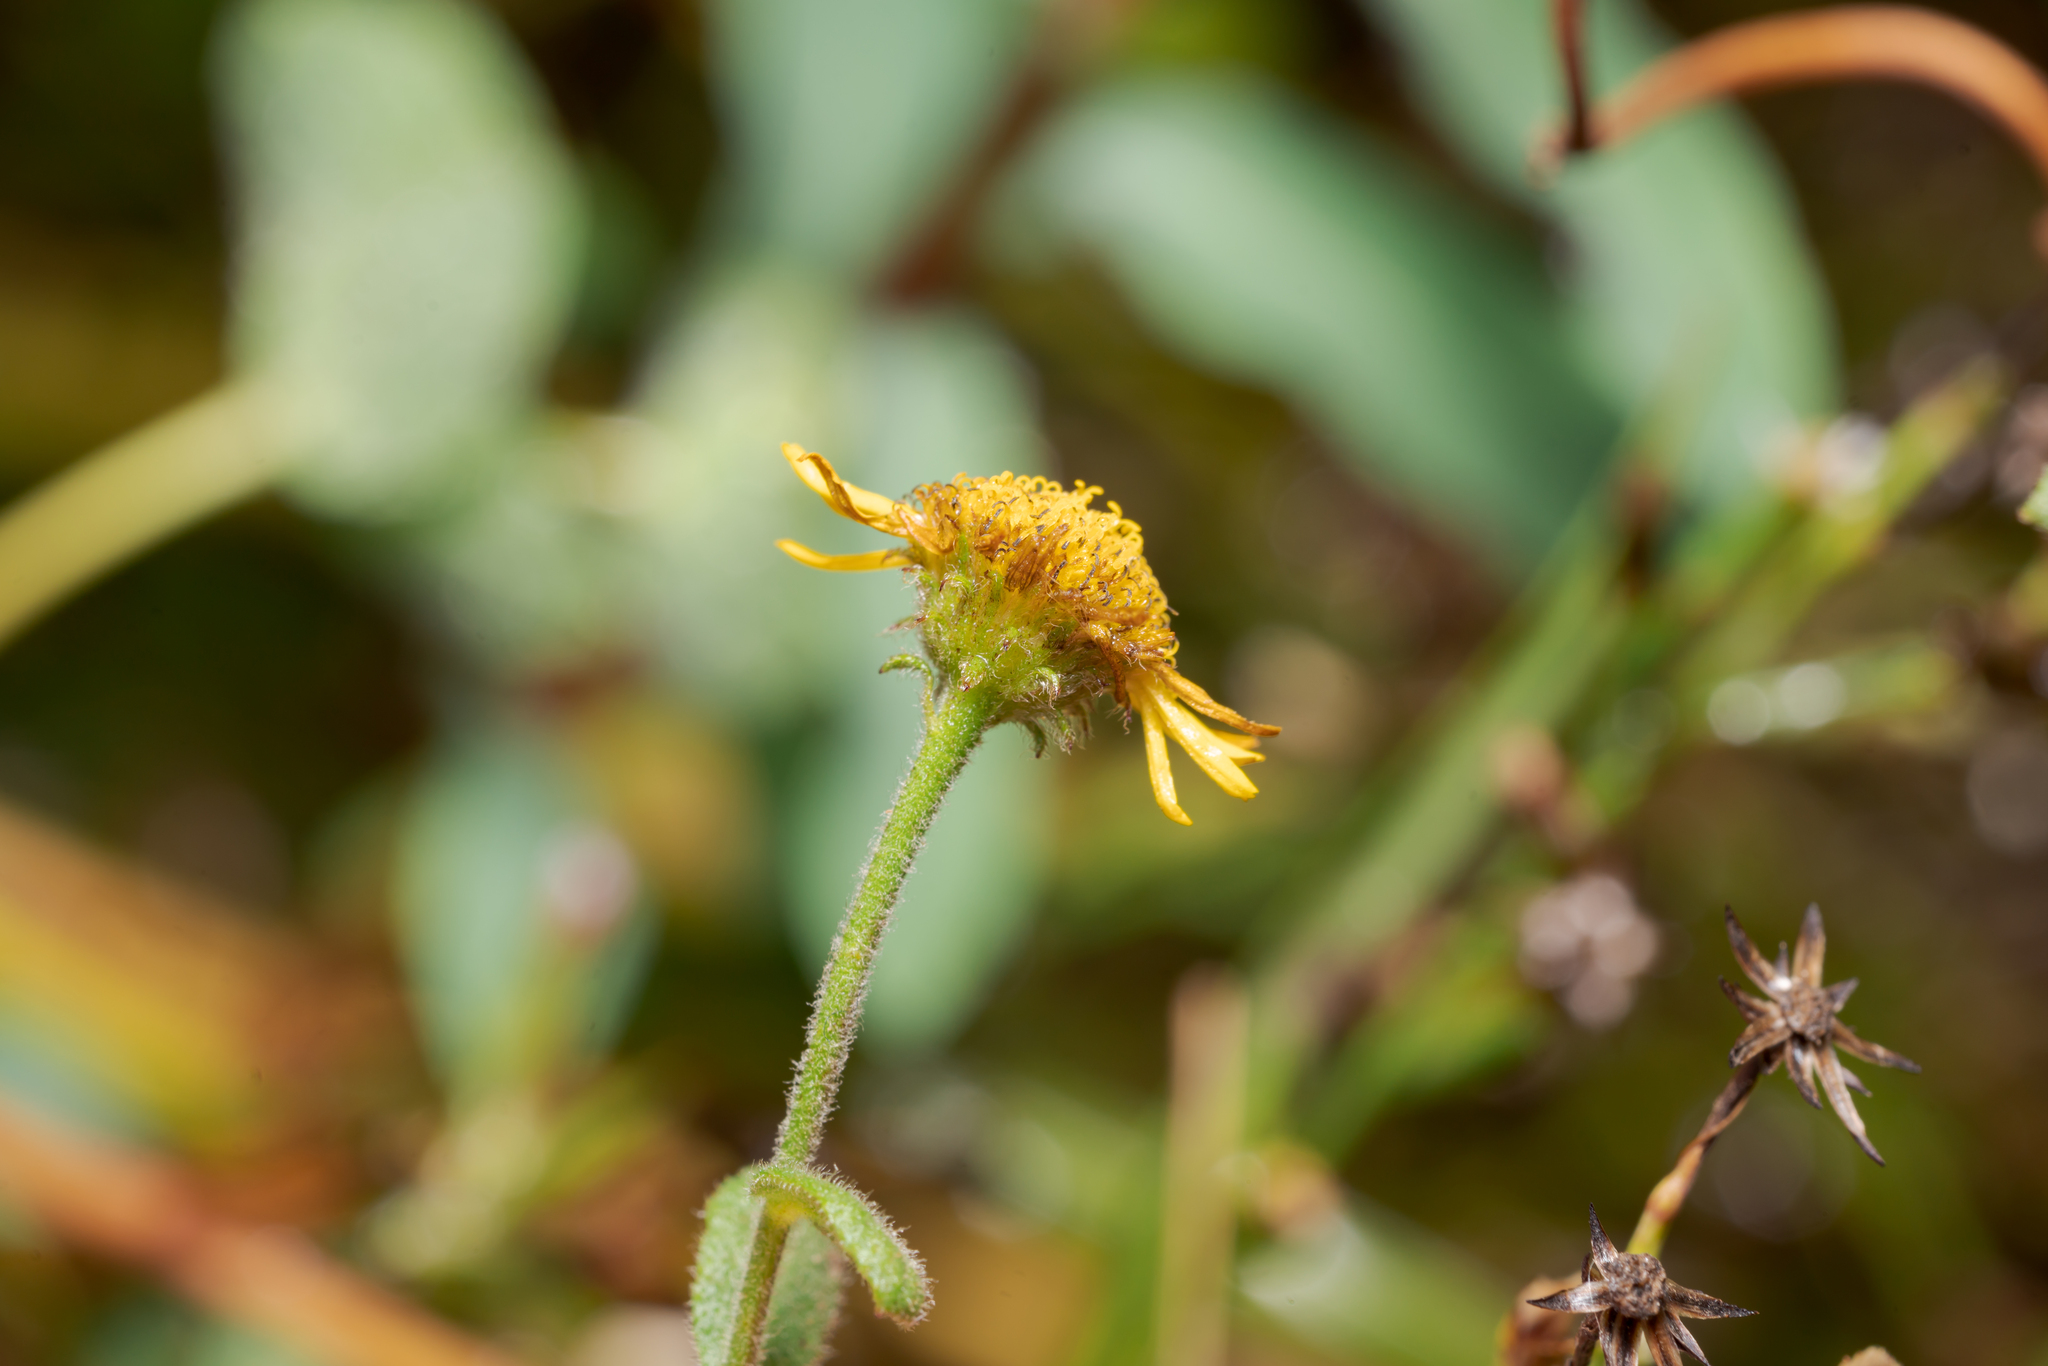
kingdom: Plantae
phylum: Tracheophyta
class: Magnoliopsida
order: Asterales
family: Asteraceae
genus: Pulicaria
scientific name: Pulicaria dysenterica
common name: Common fleabane
